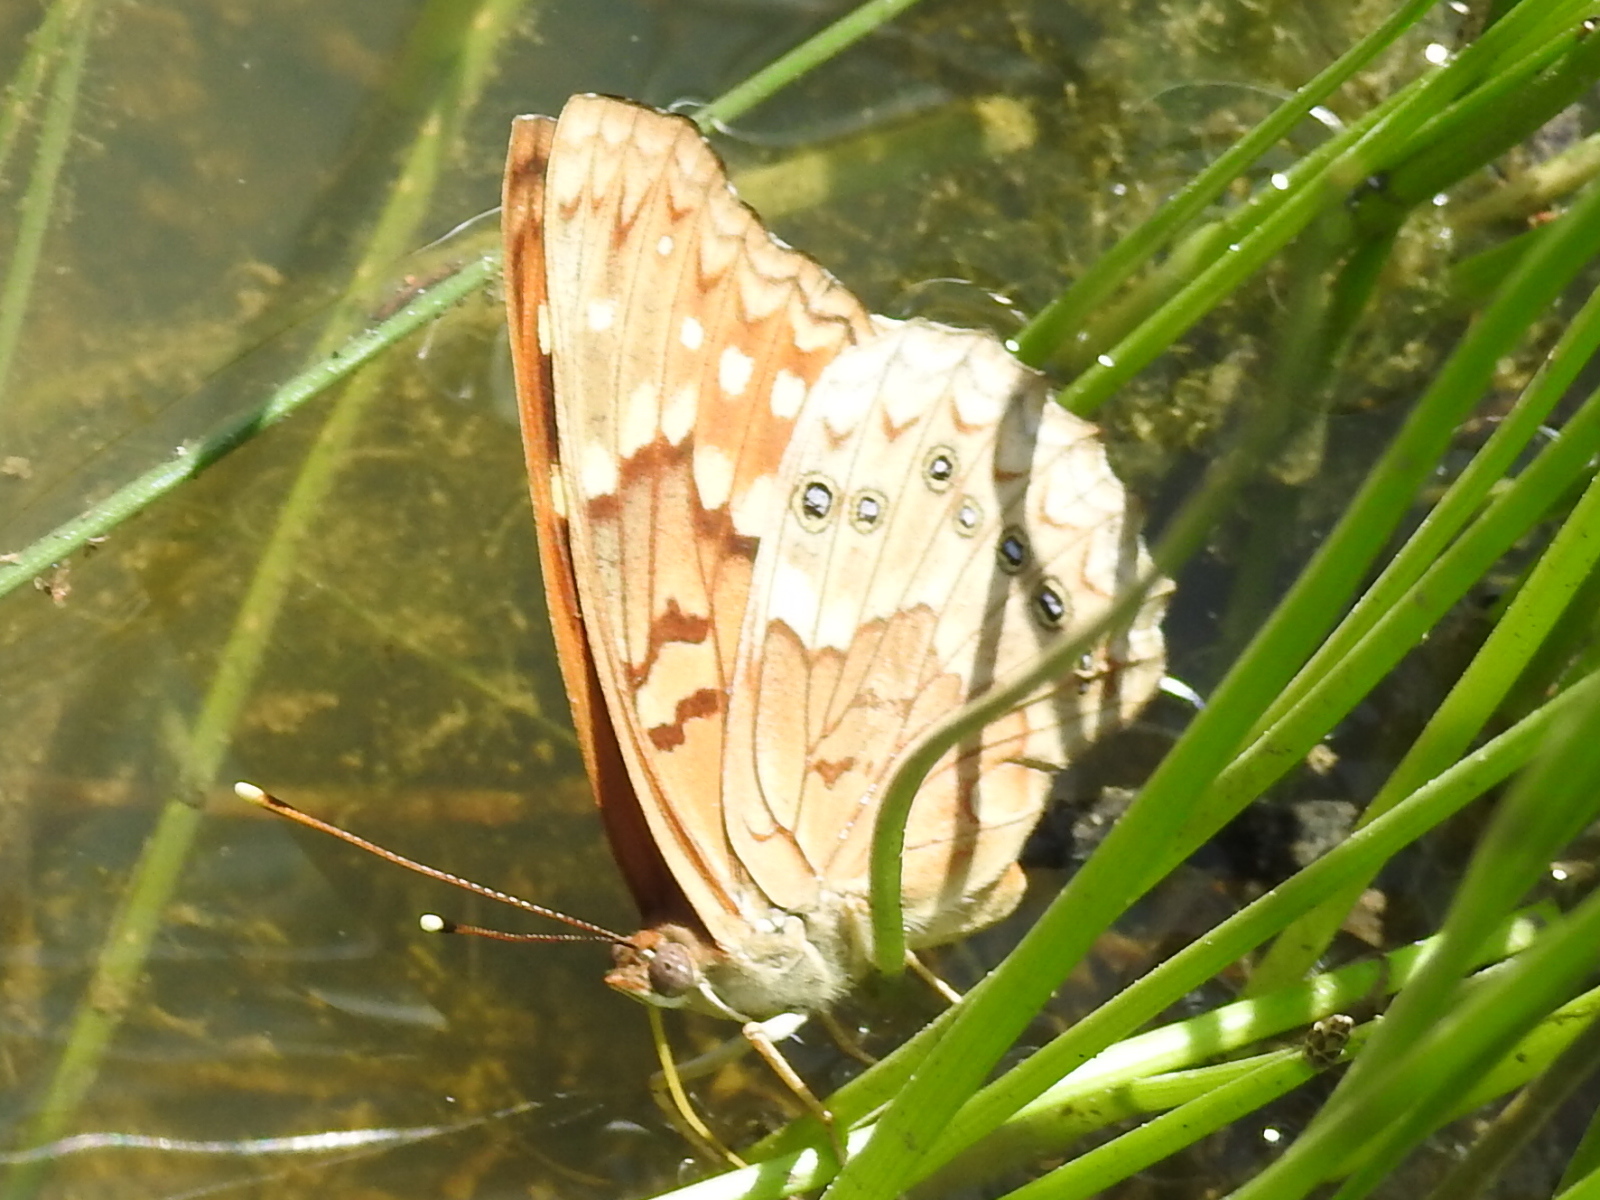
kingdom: Animalia
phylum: Arthropoda
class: Insecta
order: Lepidoptera
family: Nymphalidae
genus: Asterocampa
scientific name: Asterocampa clyton
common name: Tawny emperor
